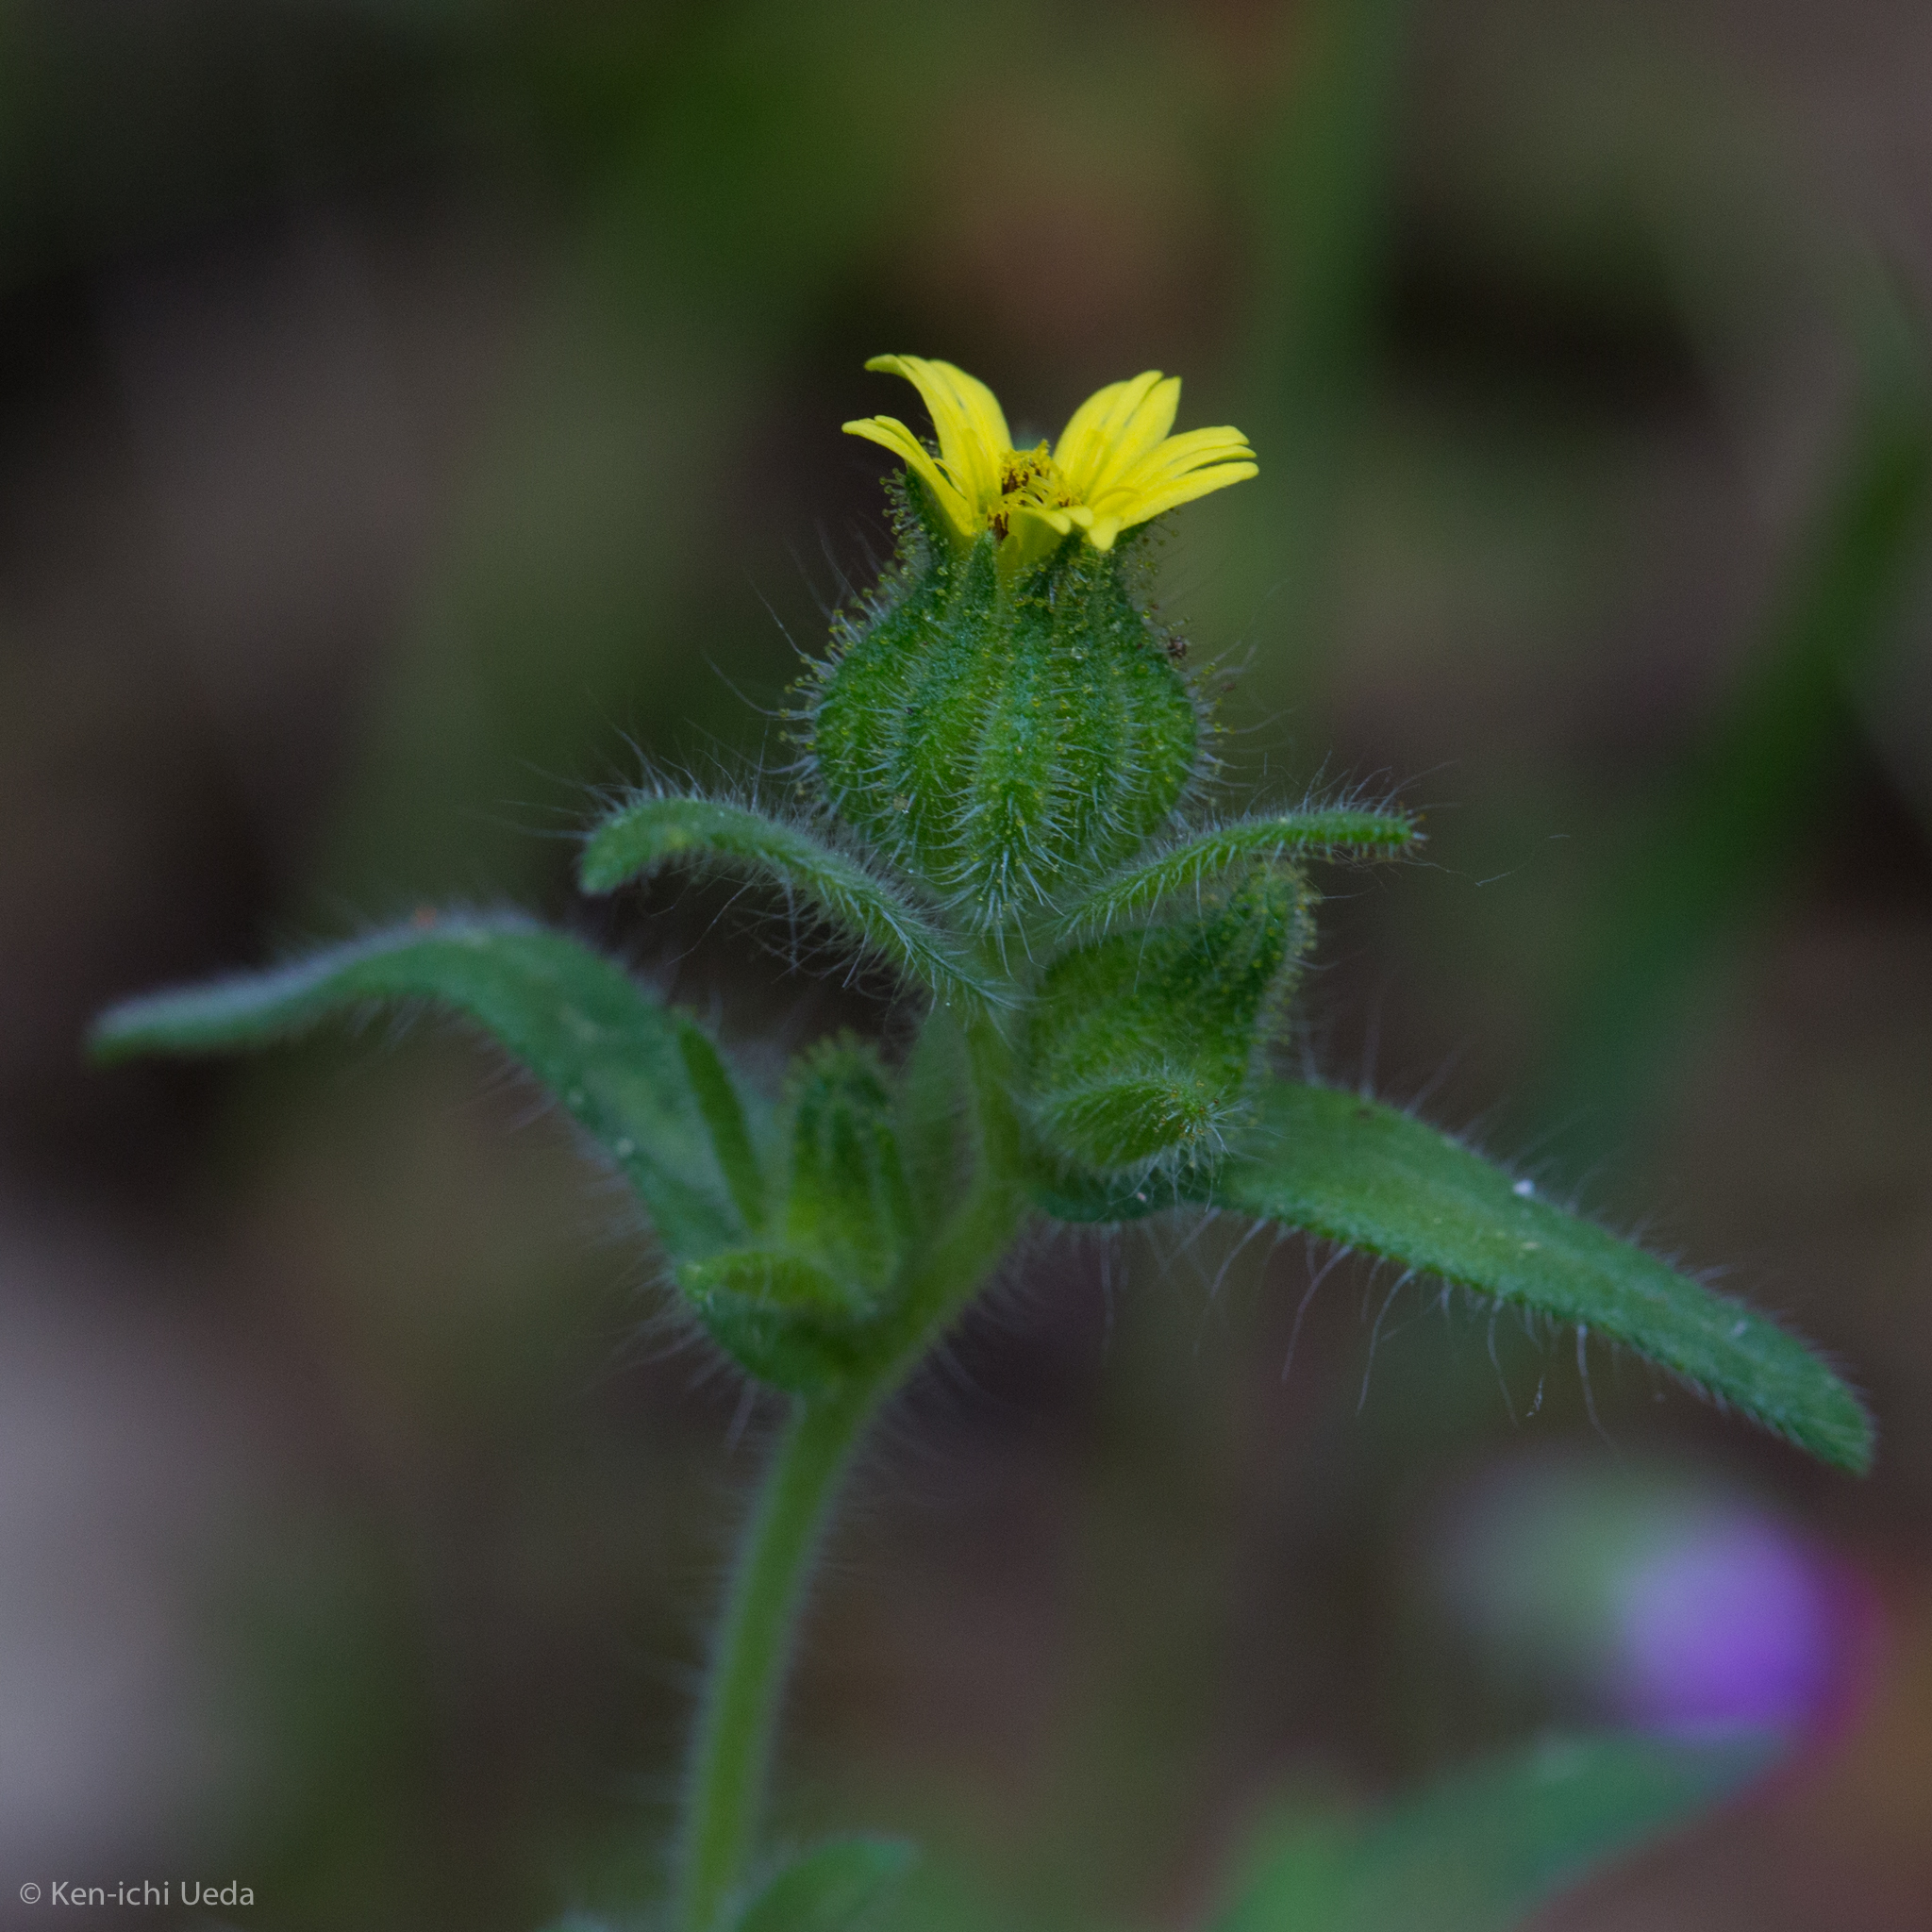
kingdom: Plantae
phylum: Tracheophyta
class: Magnoliopsida
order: Asterales
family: Asteraceae
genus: Madia
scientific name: Madia gracilis
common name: Grassy tarweed
